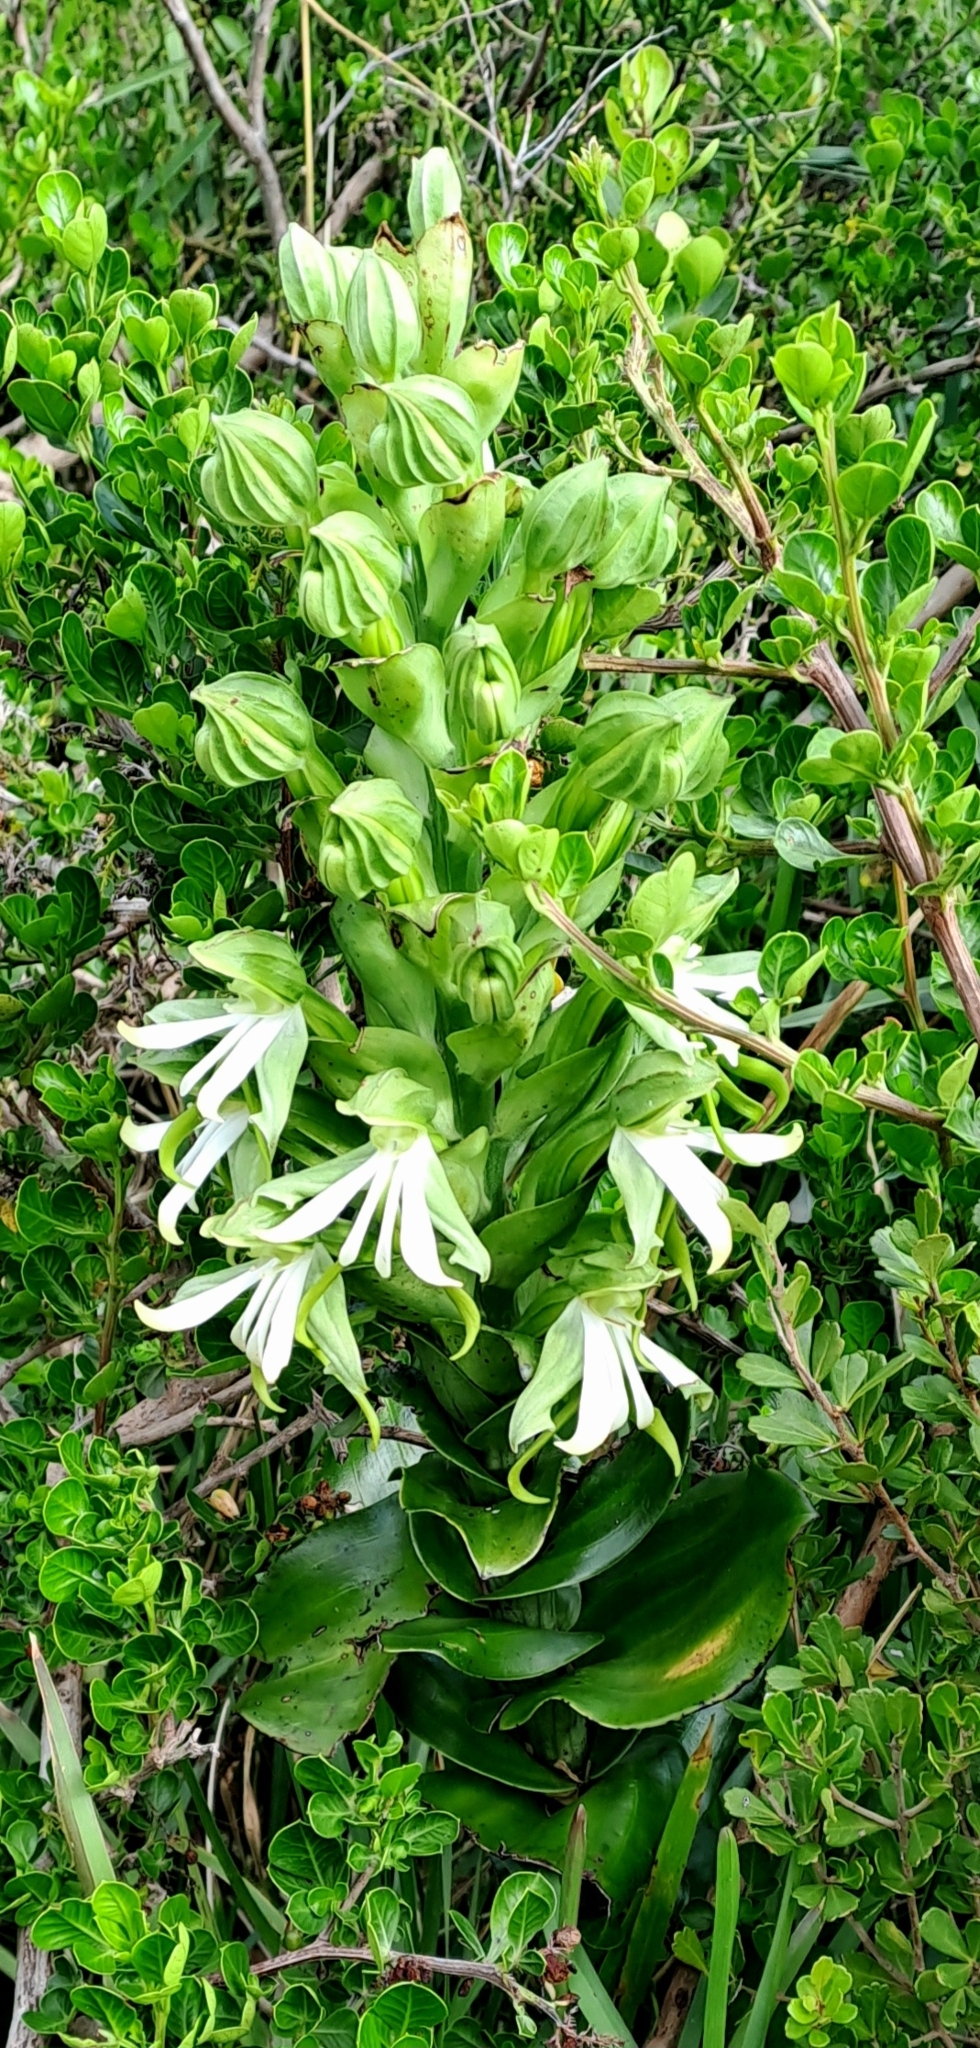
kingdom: Plantae
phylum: Tracheophyta
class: Liliopsida
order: Asparagales
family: Orchidaceae
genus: Bonatea
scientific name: Bonatea speciosa
